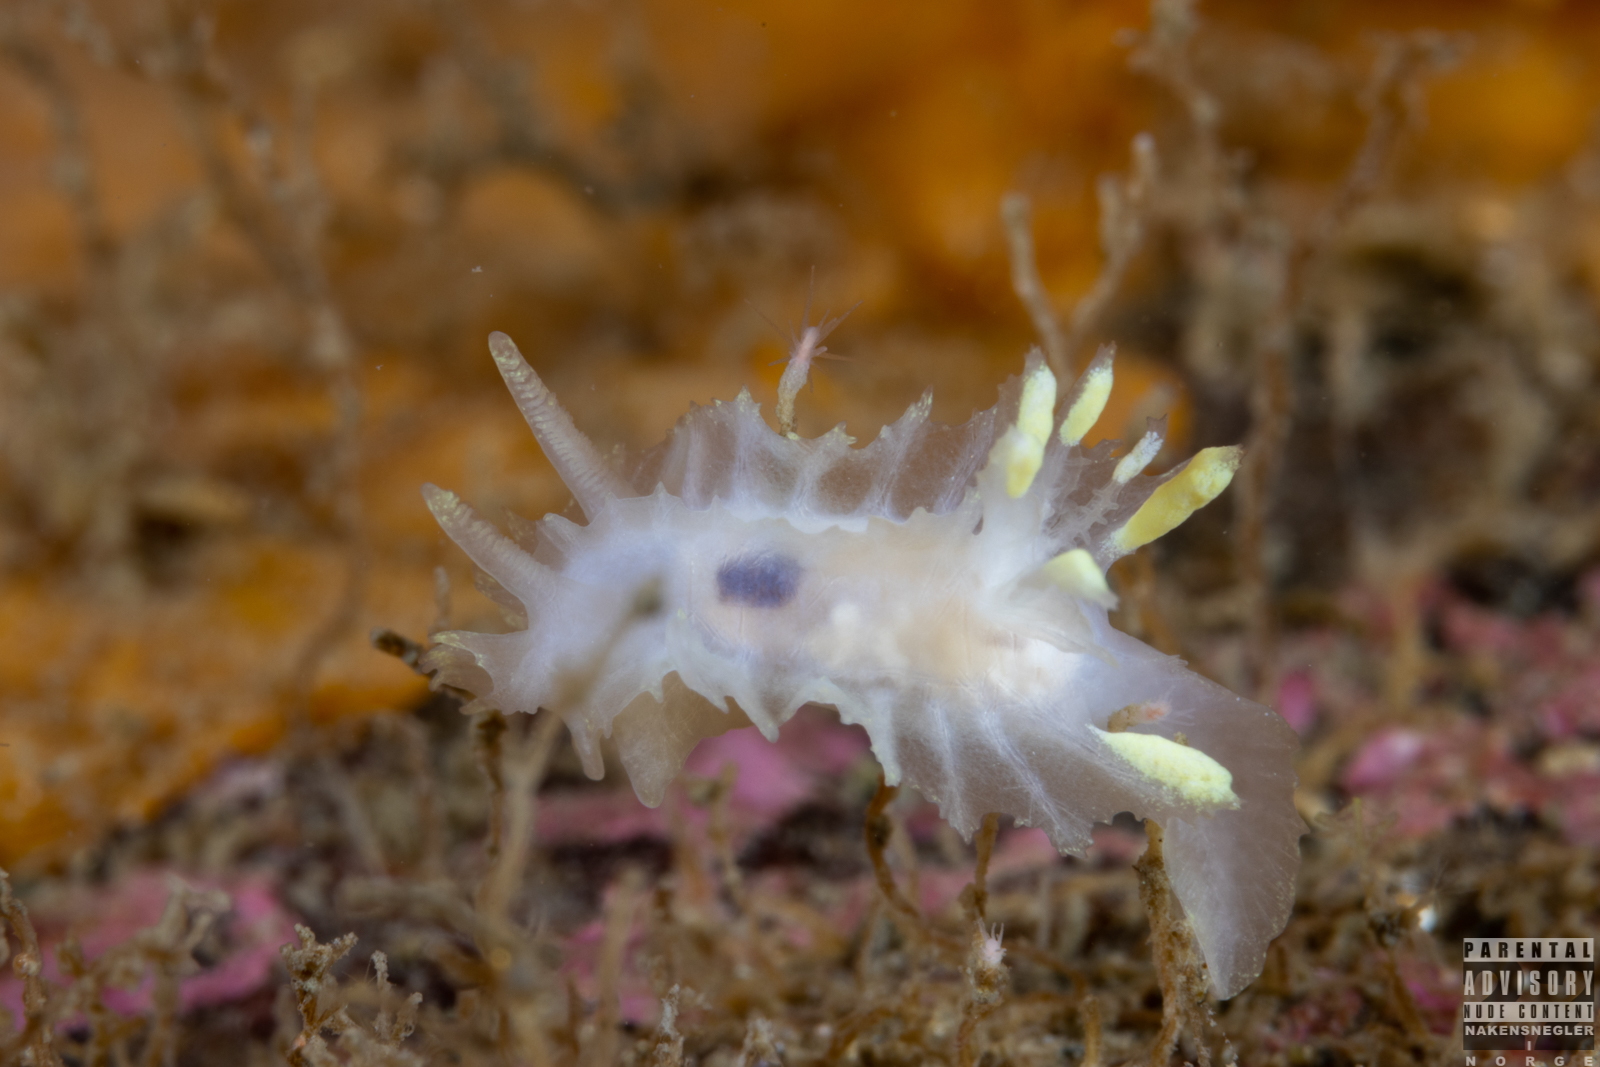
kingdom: Animalia
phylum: Mollusca
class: Gastropoda
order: Nudibranchia
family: Goniodorididae
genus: Lophodoris
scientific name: Lophodoris danielsseni
